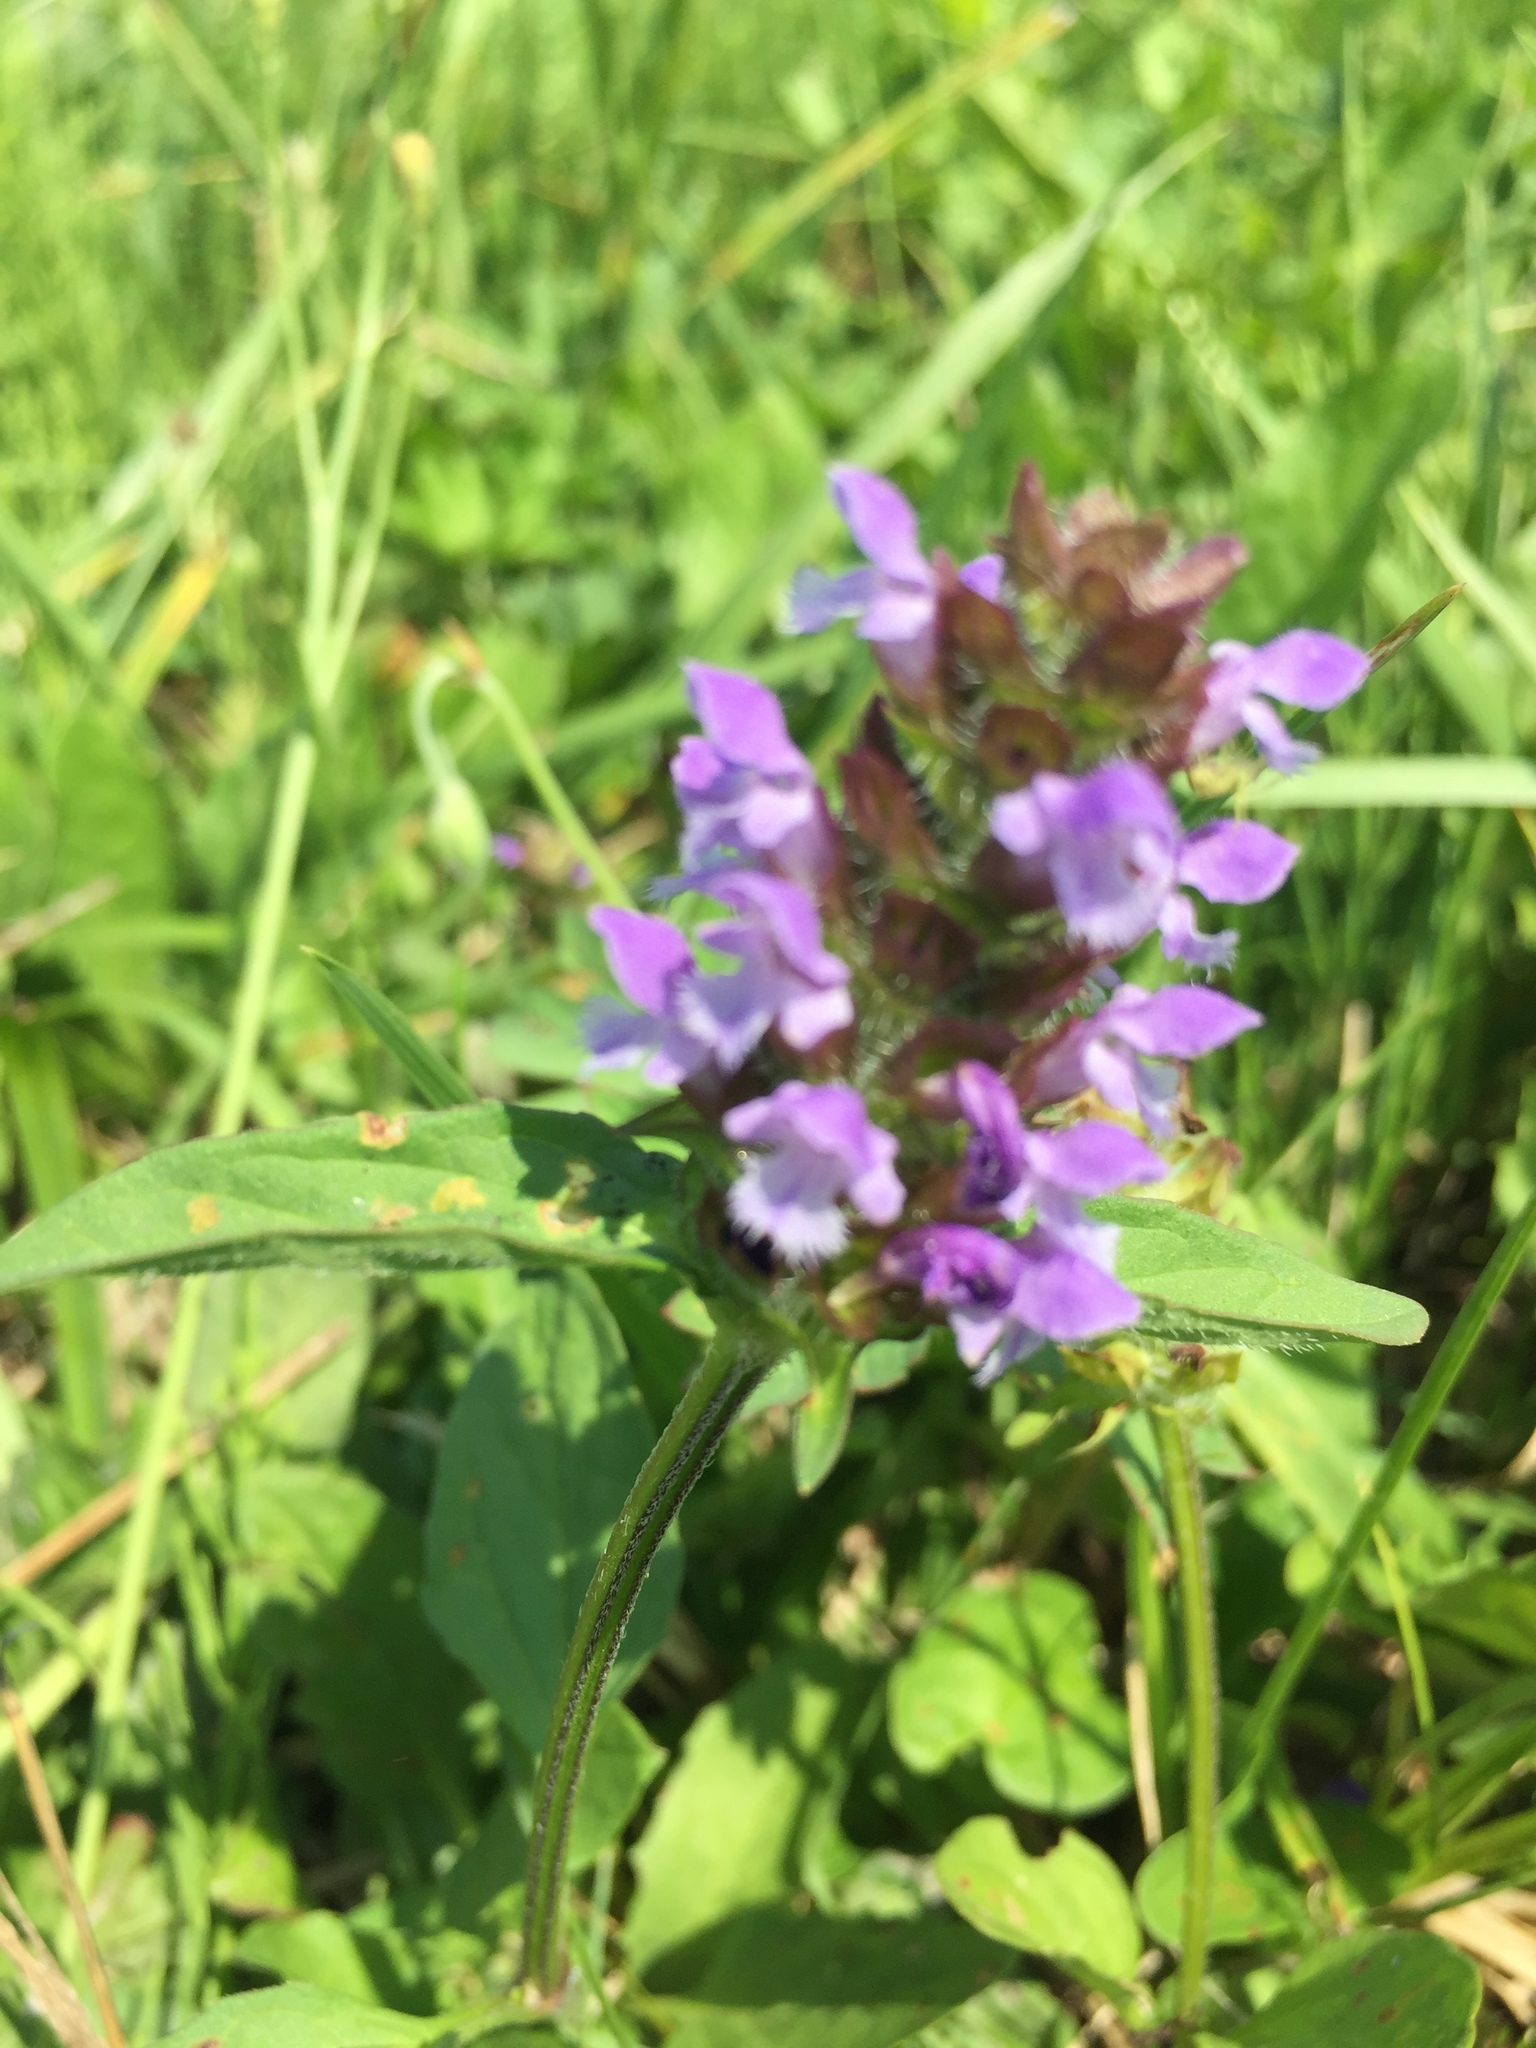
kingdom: Plantae
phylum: Tracheophyta
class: Magnoliopsida
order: Lamiales
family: Lamiaceae
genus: Prunella
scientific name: Prunella vulgaris
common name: Heal-all
